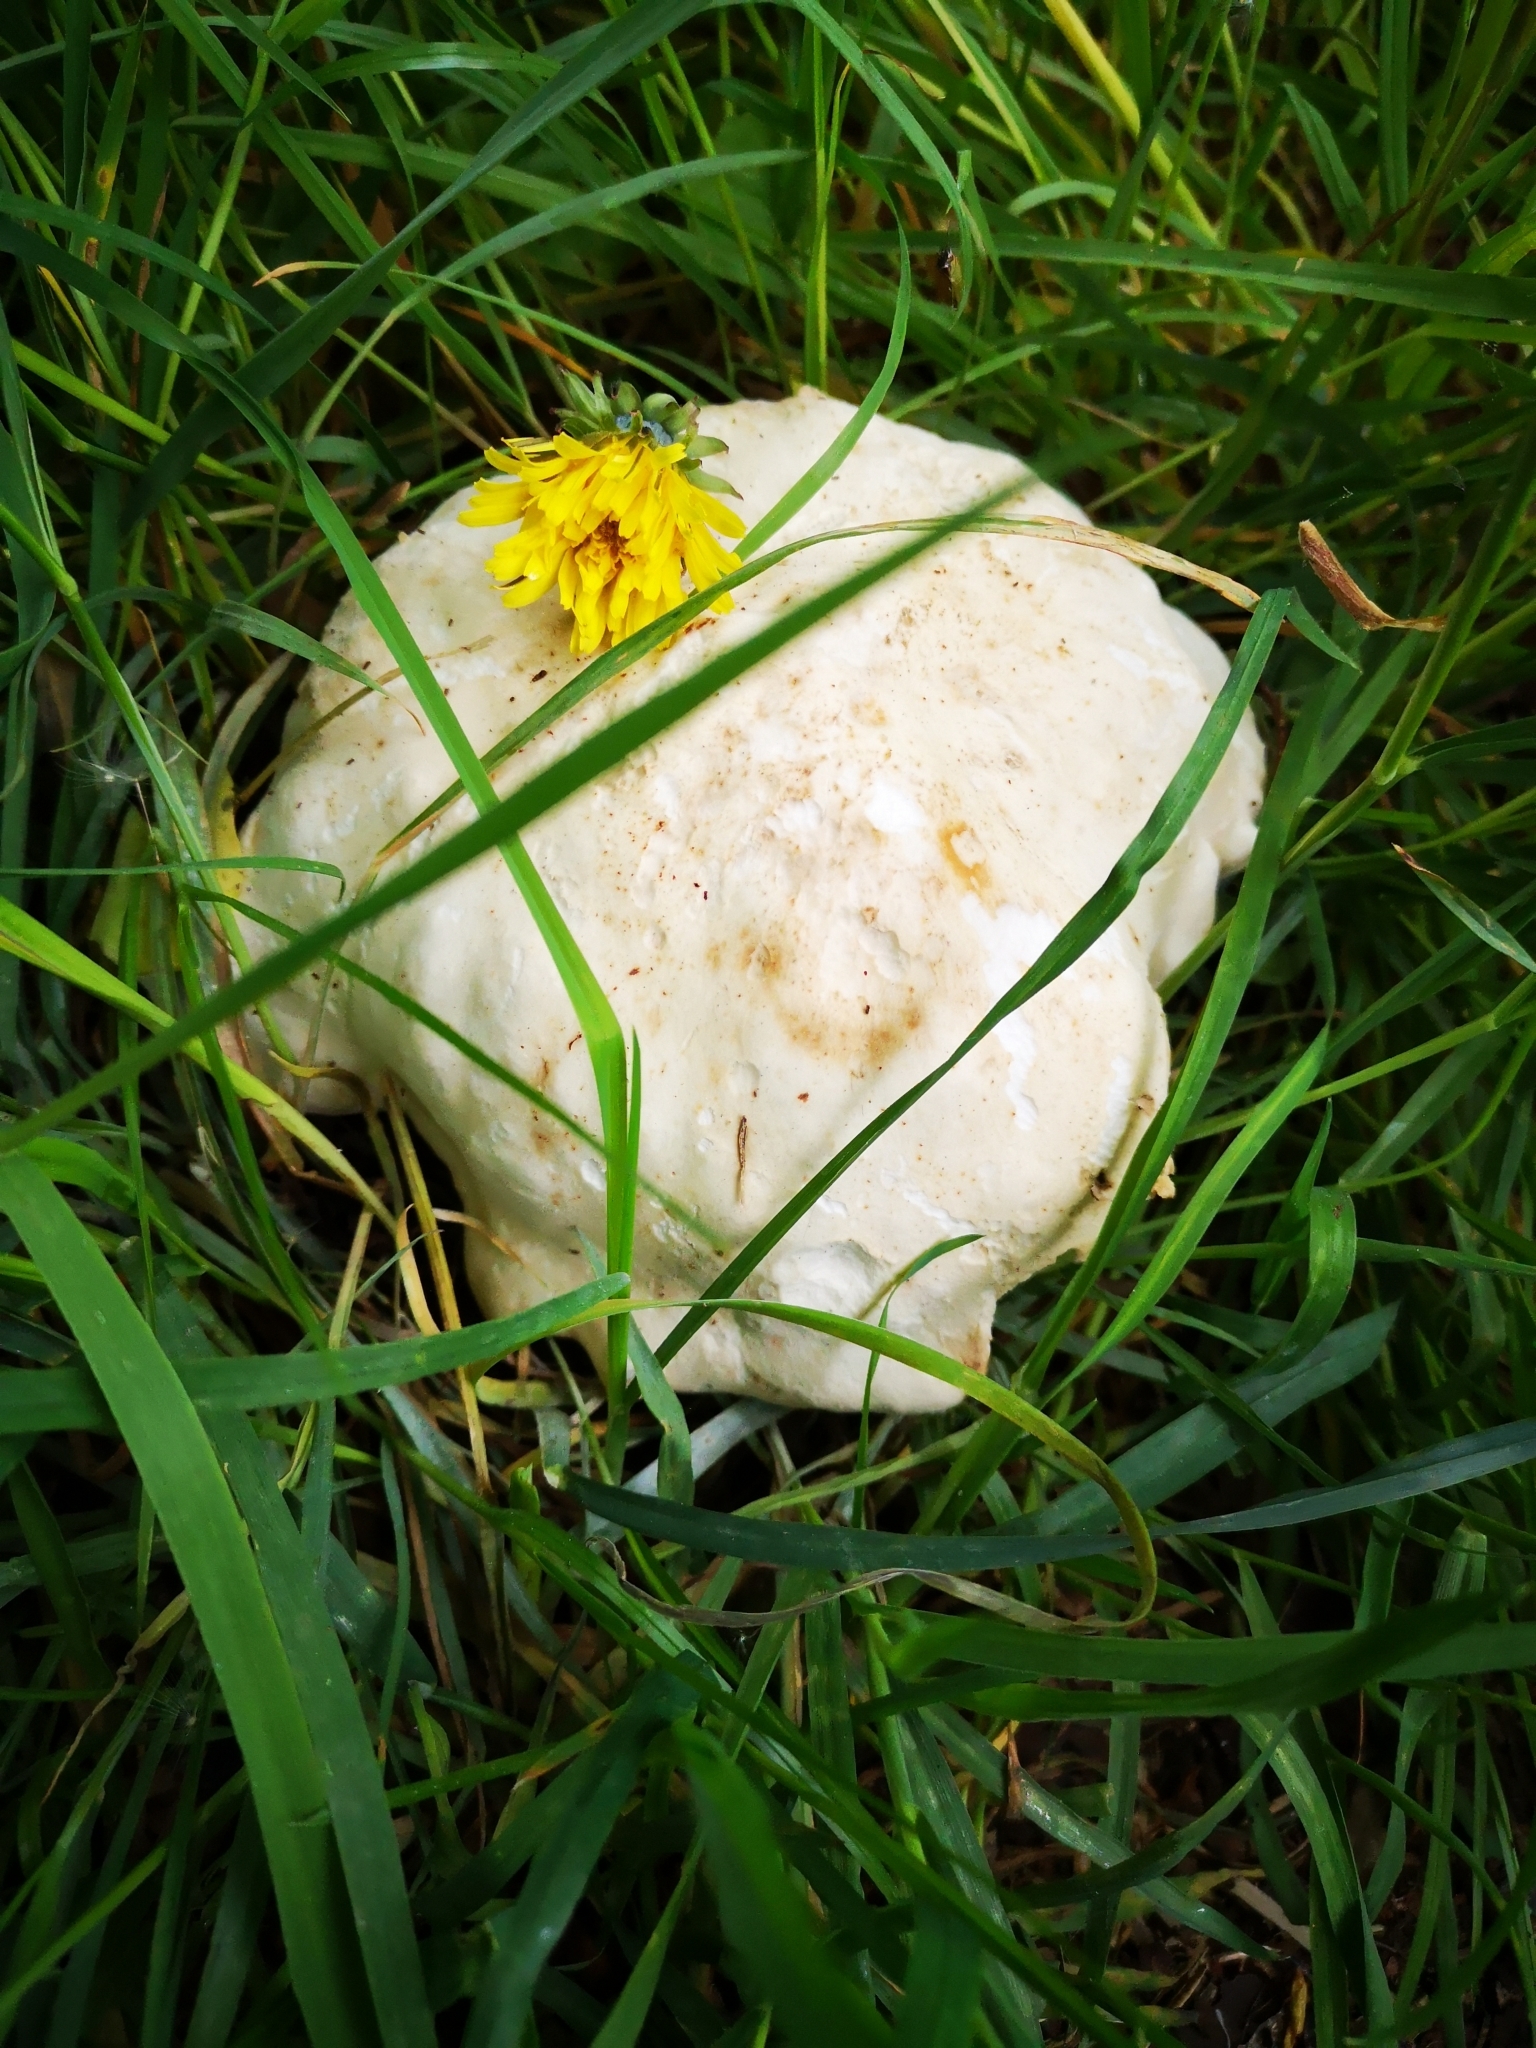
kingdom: Fungi
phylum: Basidiomycota
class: Agaricomycetes
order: Agaricales
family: Lyophyllaceae
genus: Calocybe
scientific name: Calocybe gambosa
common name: St. george's mushroom
